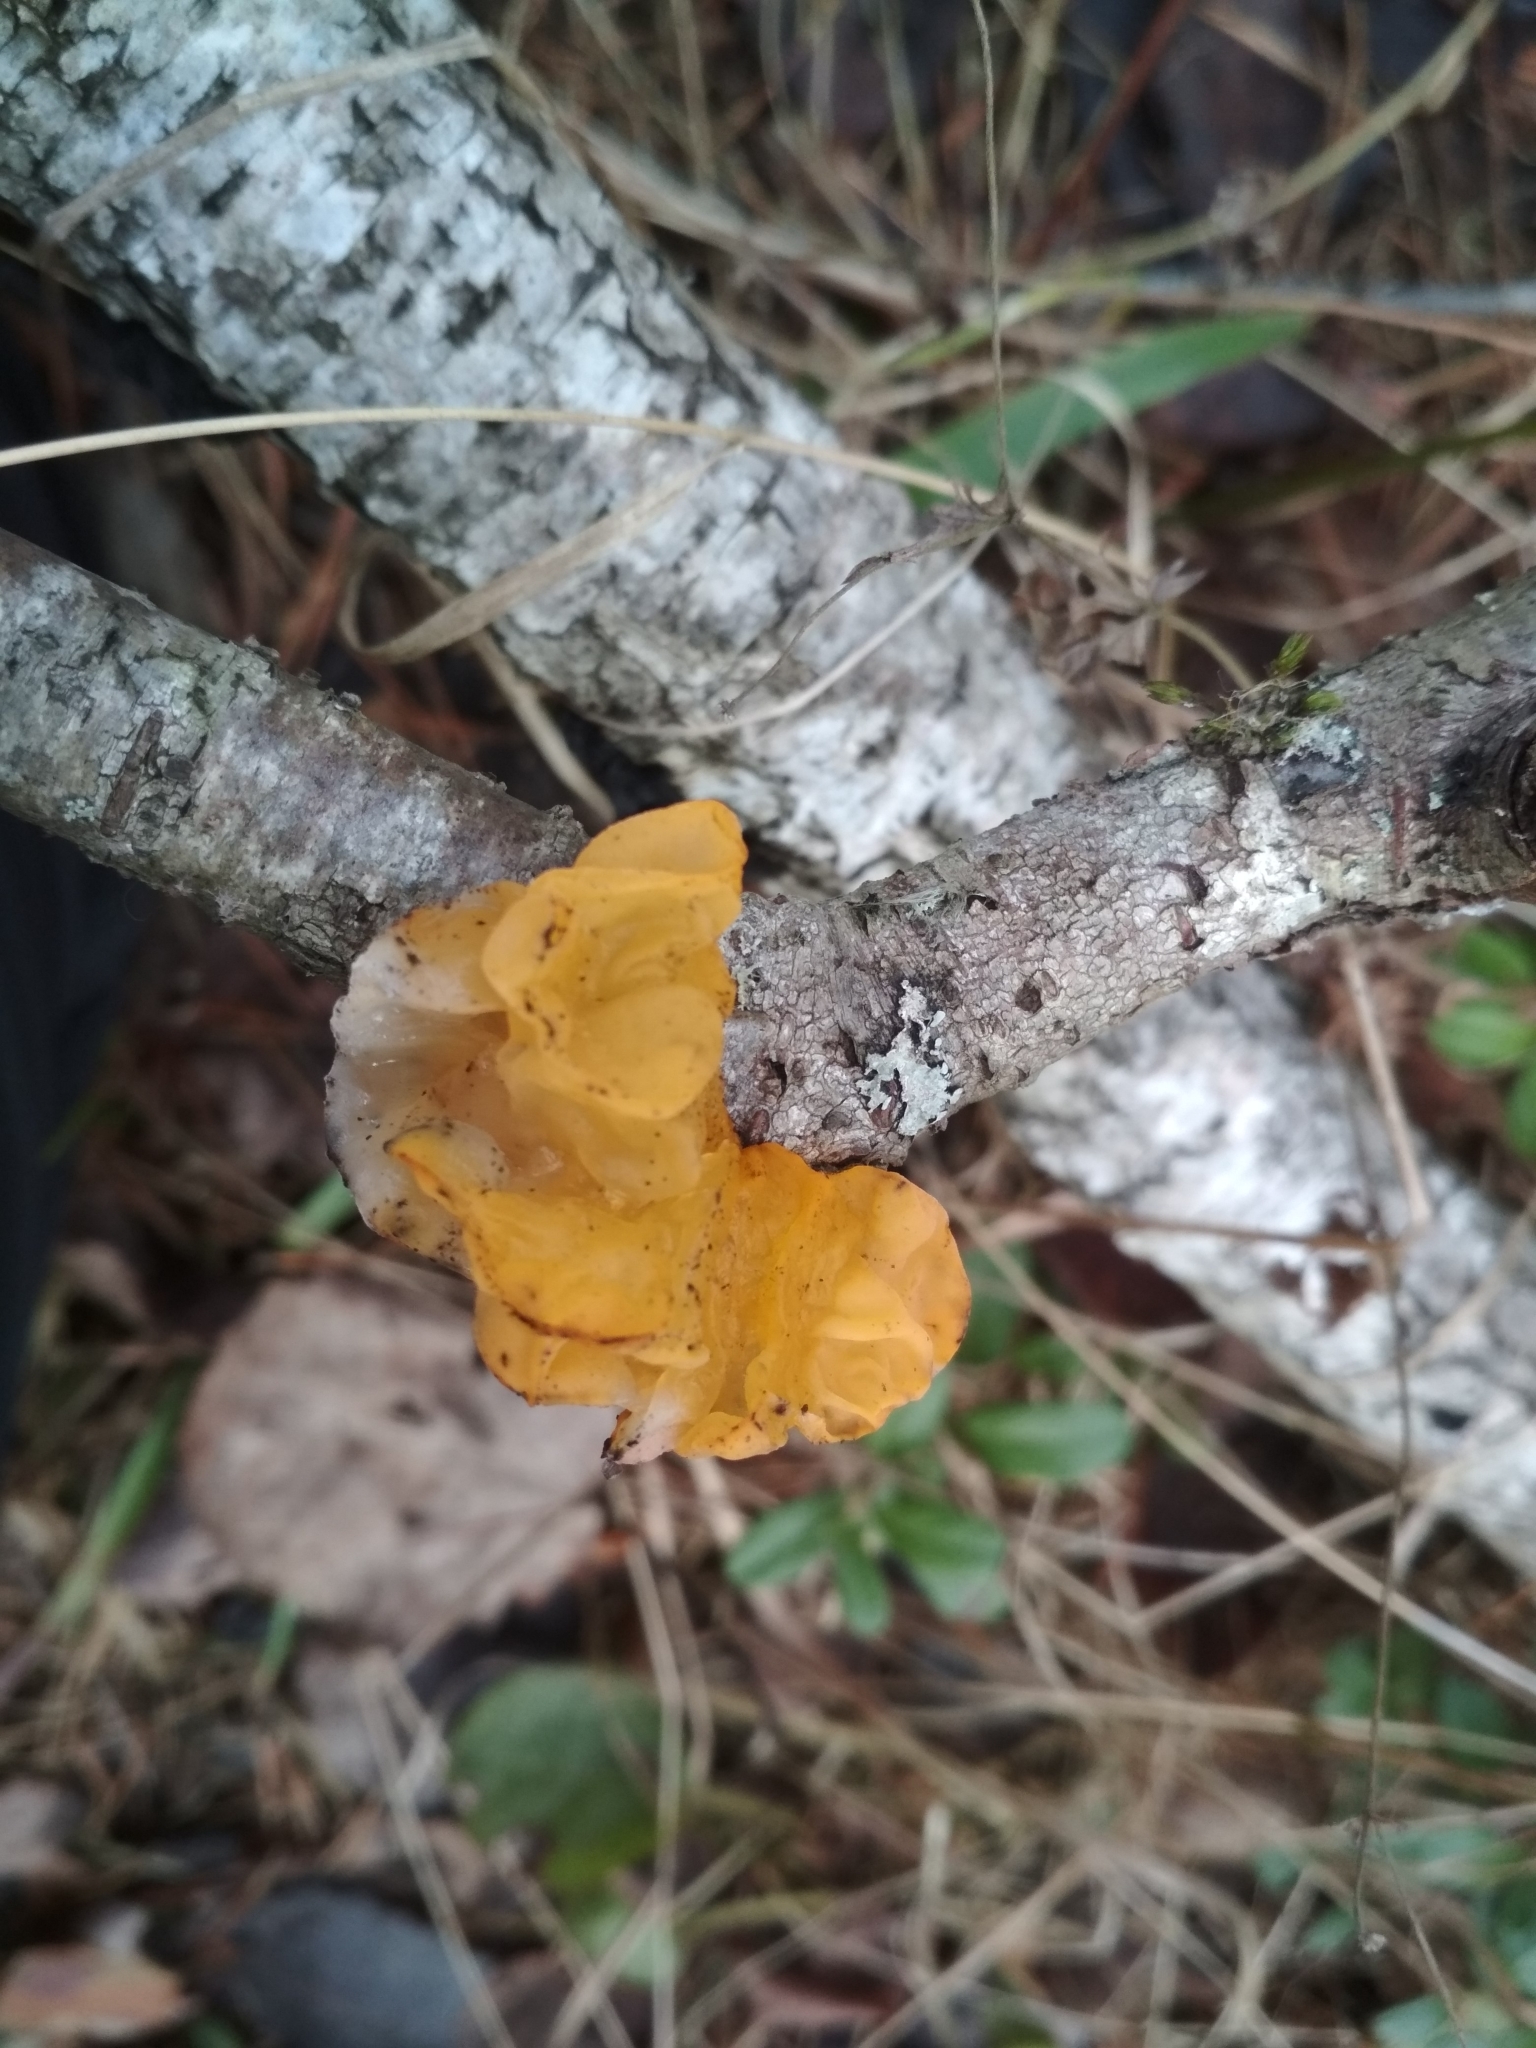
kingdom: Fungi
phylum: Basidiomycota
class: Tremellomycetes
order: Tremellales
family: Tremellaceae
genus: Tremella
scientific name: Tremella mesenterica
